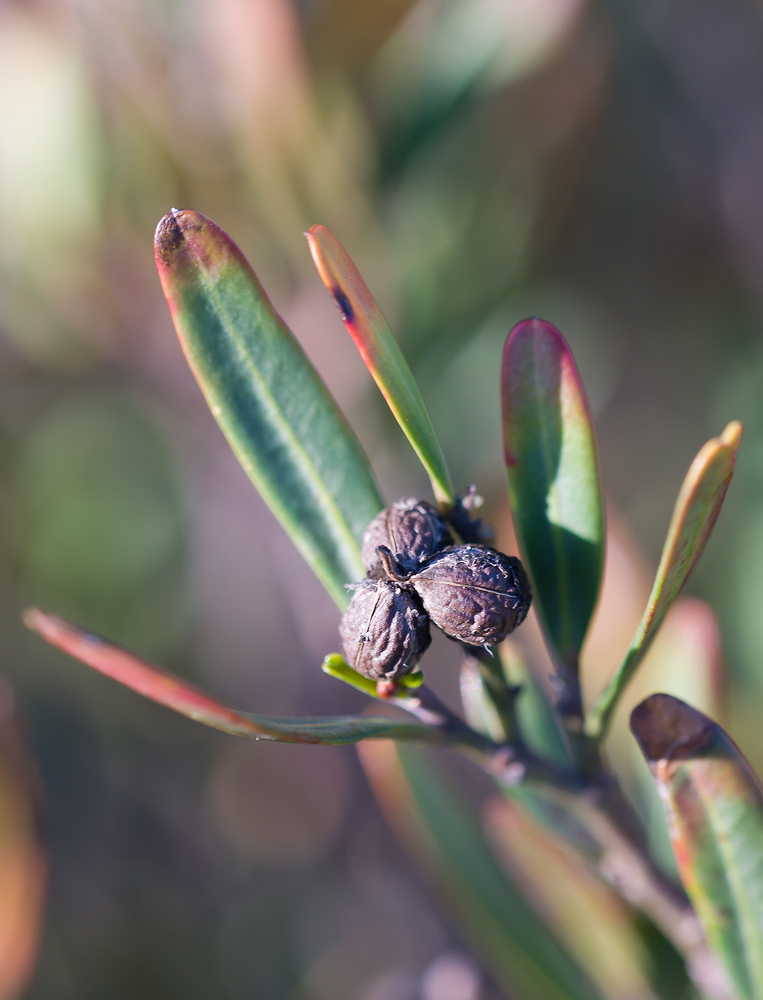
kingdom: Plantae
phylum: Tracheophyta
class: Magnoliopsida
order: Sapindales
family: Rutaceae
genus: Cneorum
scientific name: Cneorum tricoccon
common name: Spurge olive
